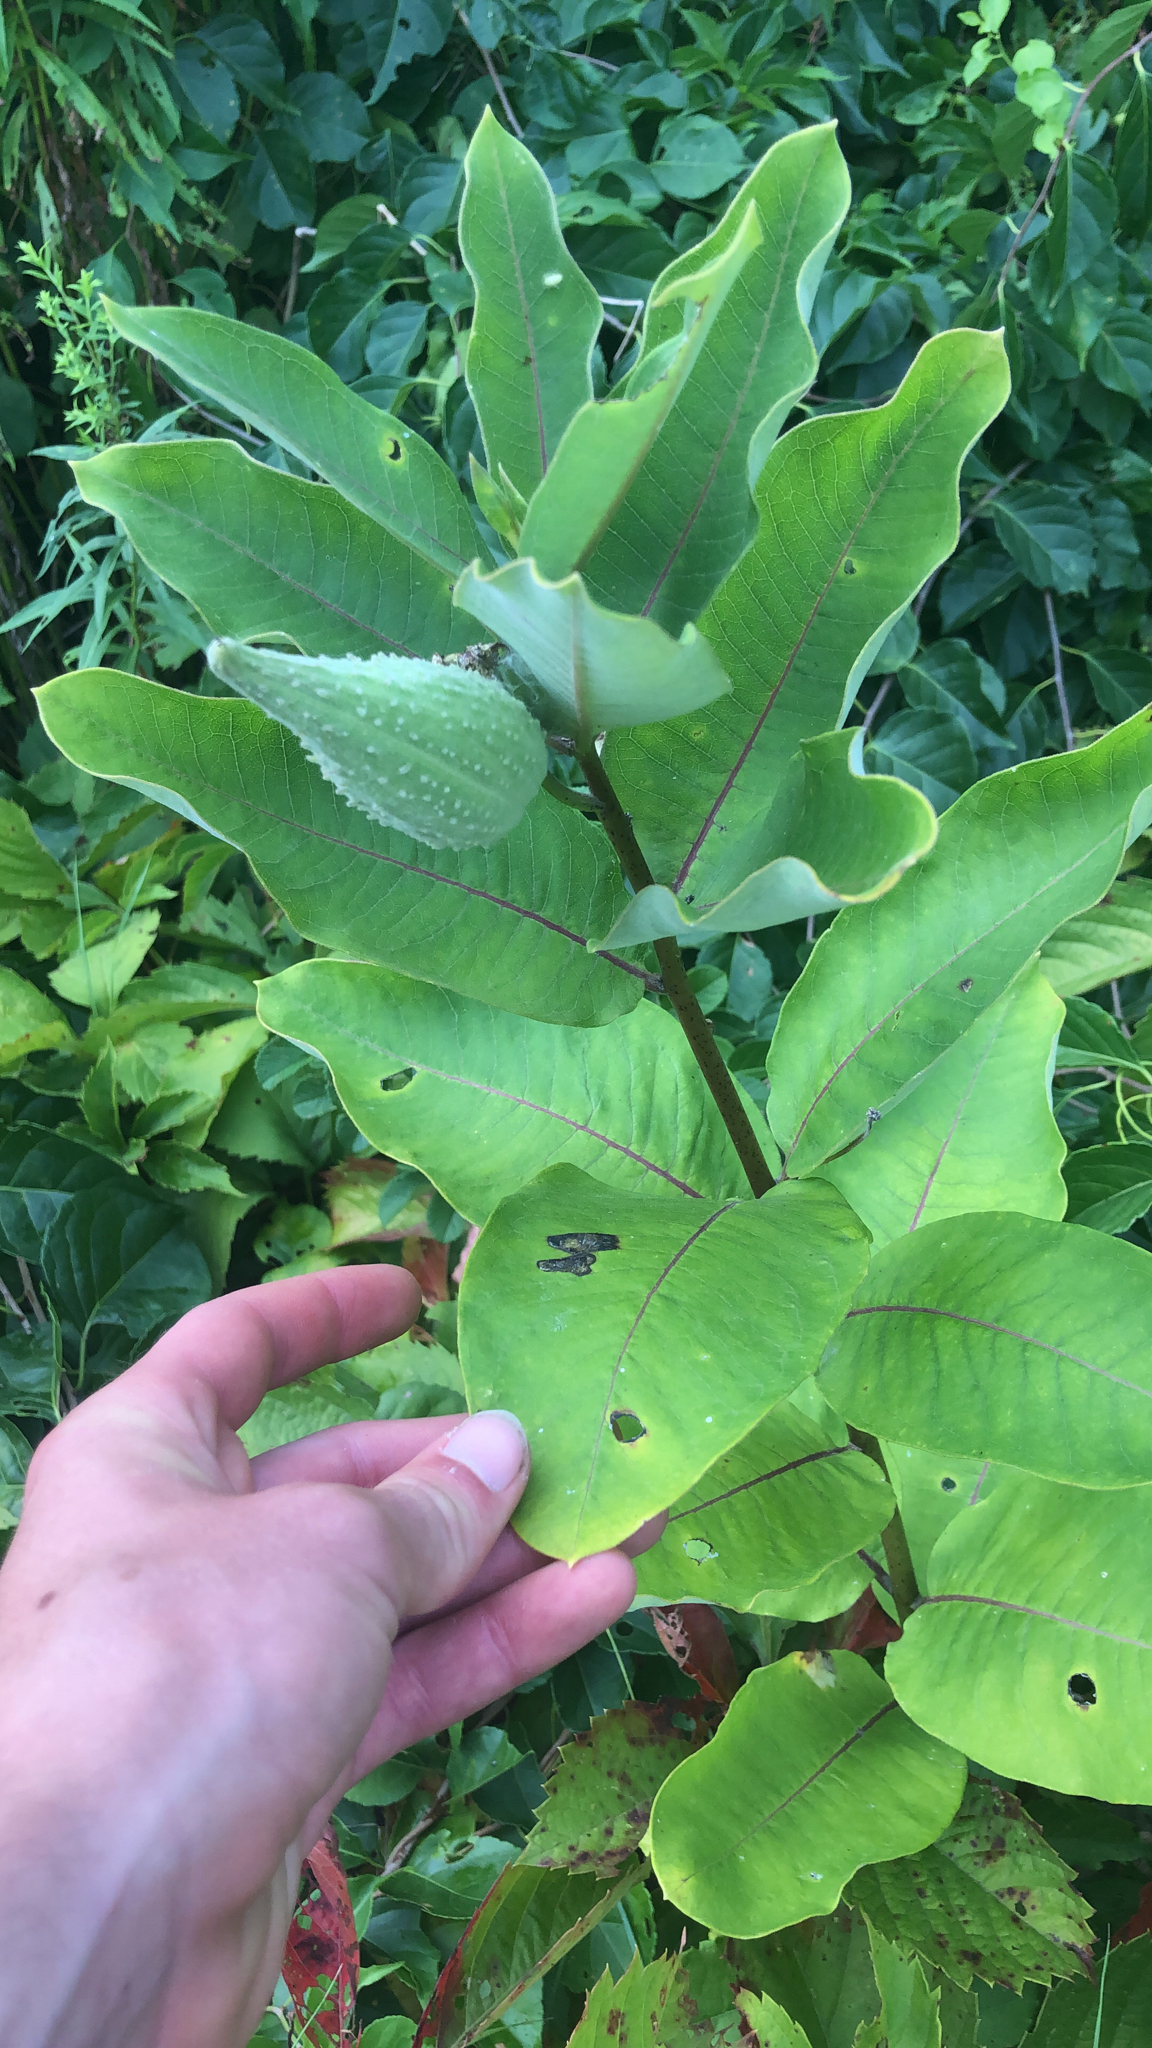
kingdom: Plantae
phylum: Tracheophyta
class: Magnoliopsida
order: Gentianales
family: Apocynaceae
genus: Asclepias
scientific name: Asclepias syriaca
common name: Common milkweed
